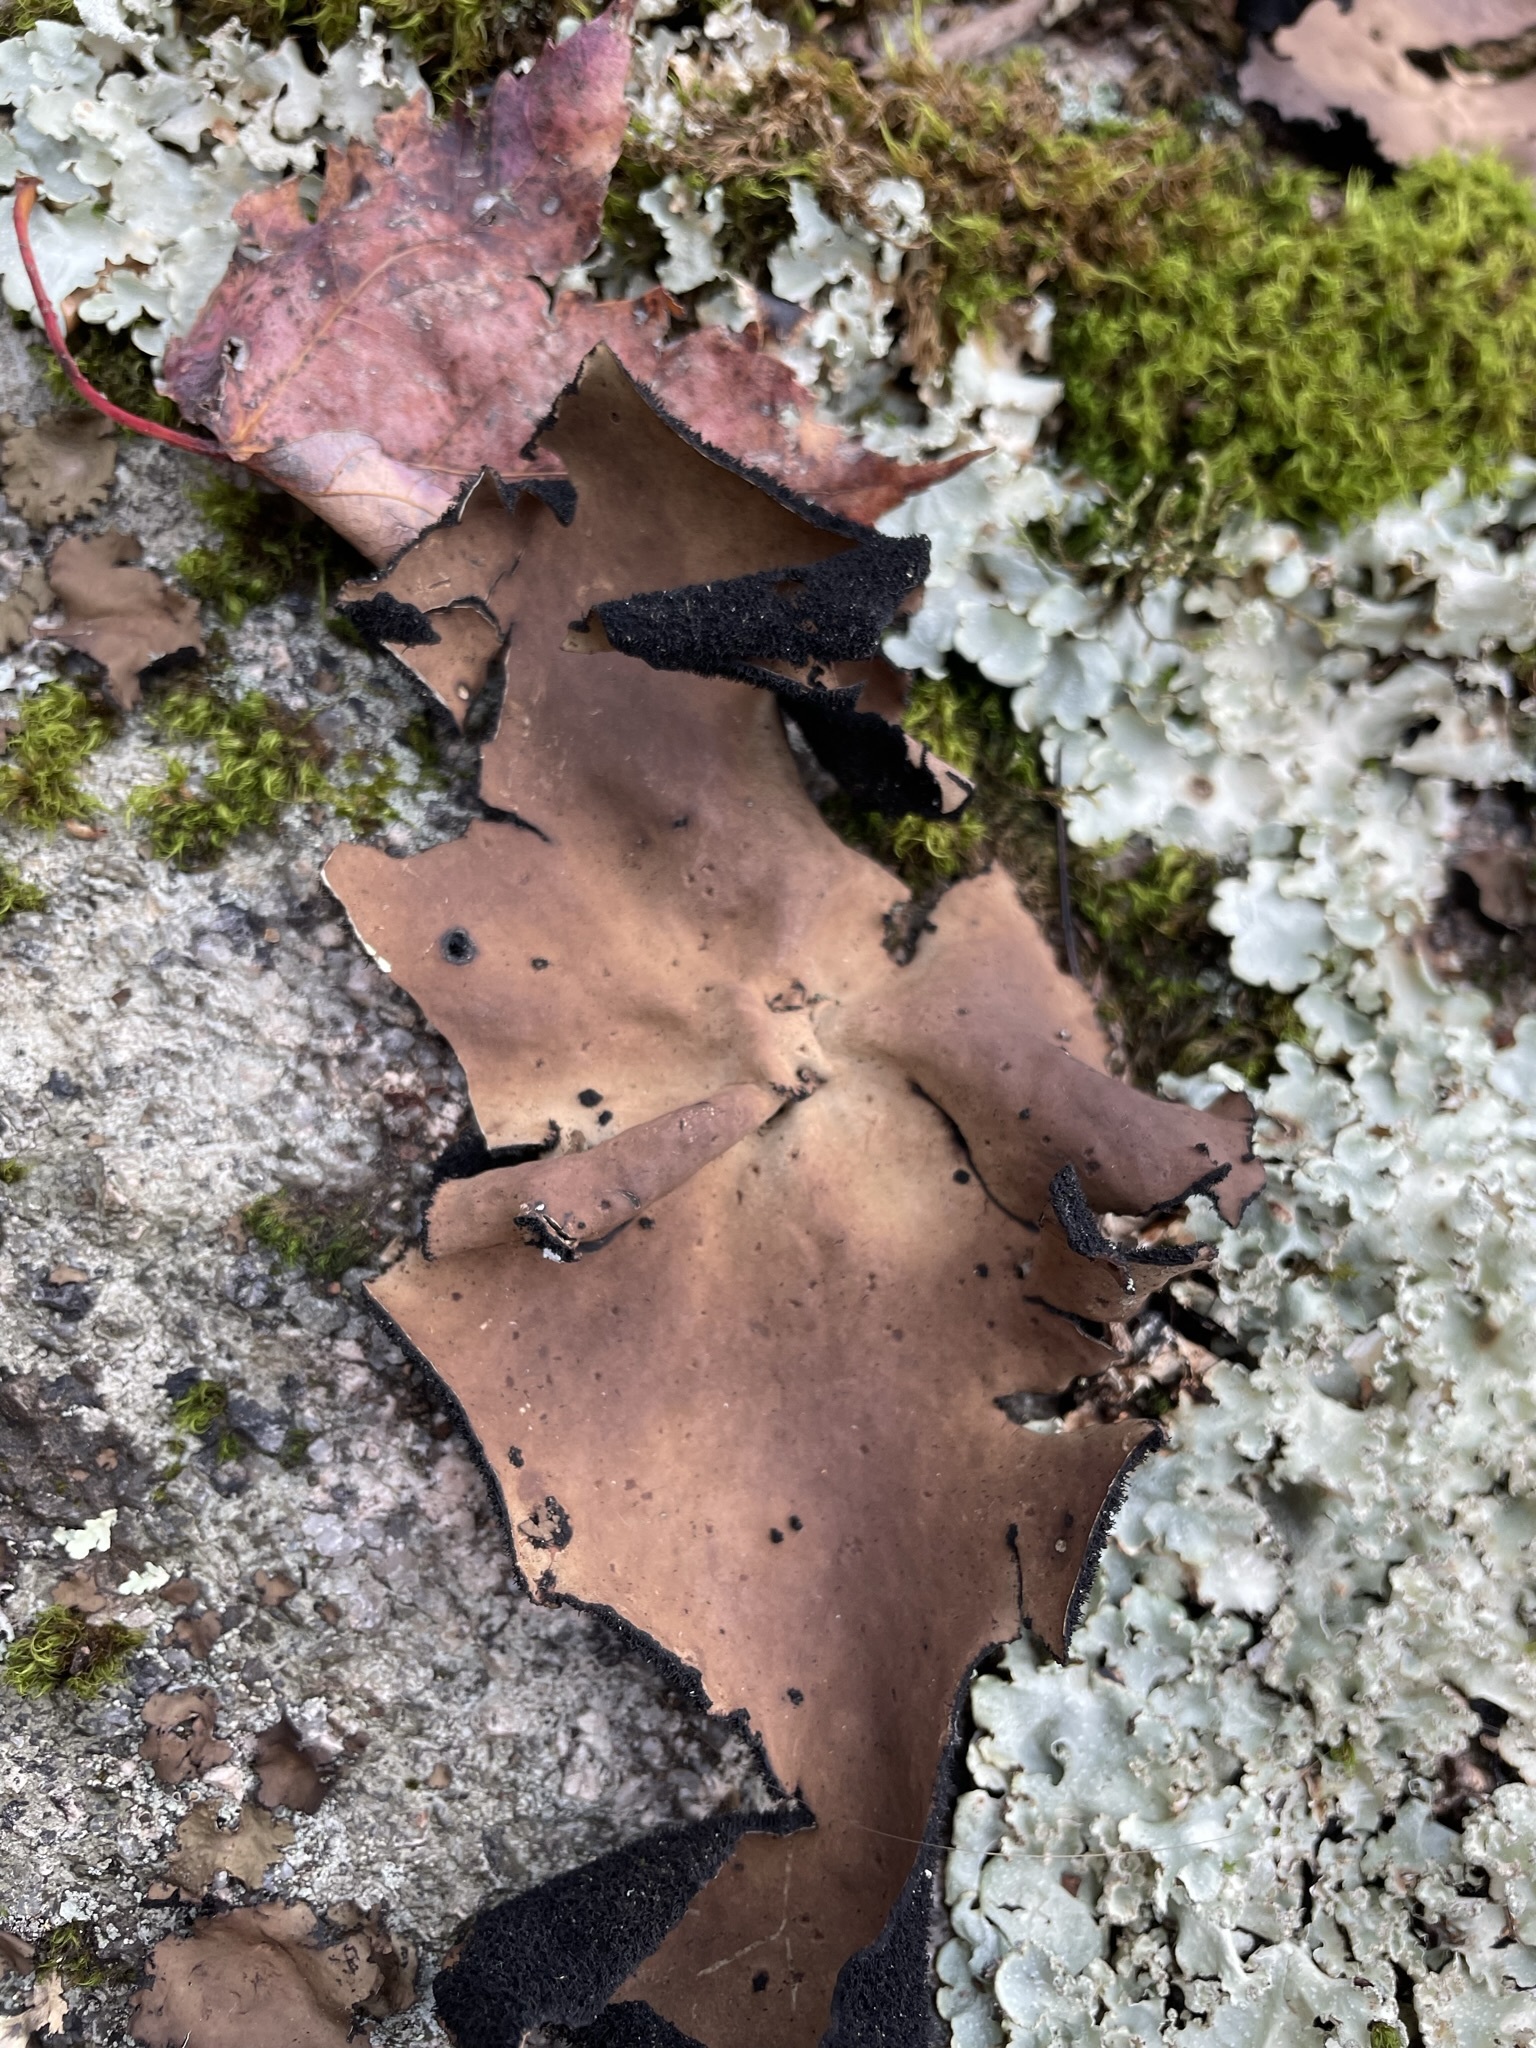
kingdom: Fungi
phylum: Ascomycota
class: Lecanoromycetes
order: Umbilicariales
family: Umbilicariaceae
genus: Umbilicaria
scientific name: Umbilicaria mammulata
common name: Smooth rock tripe
